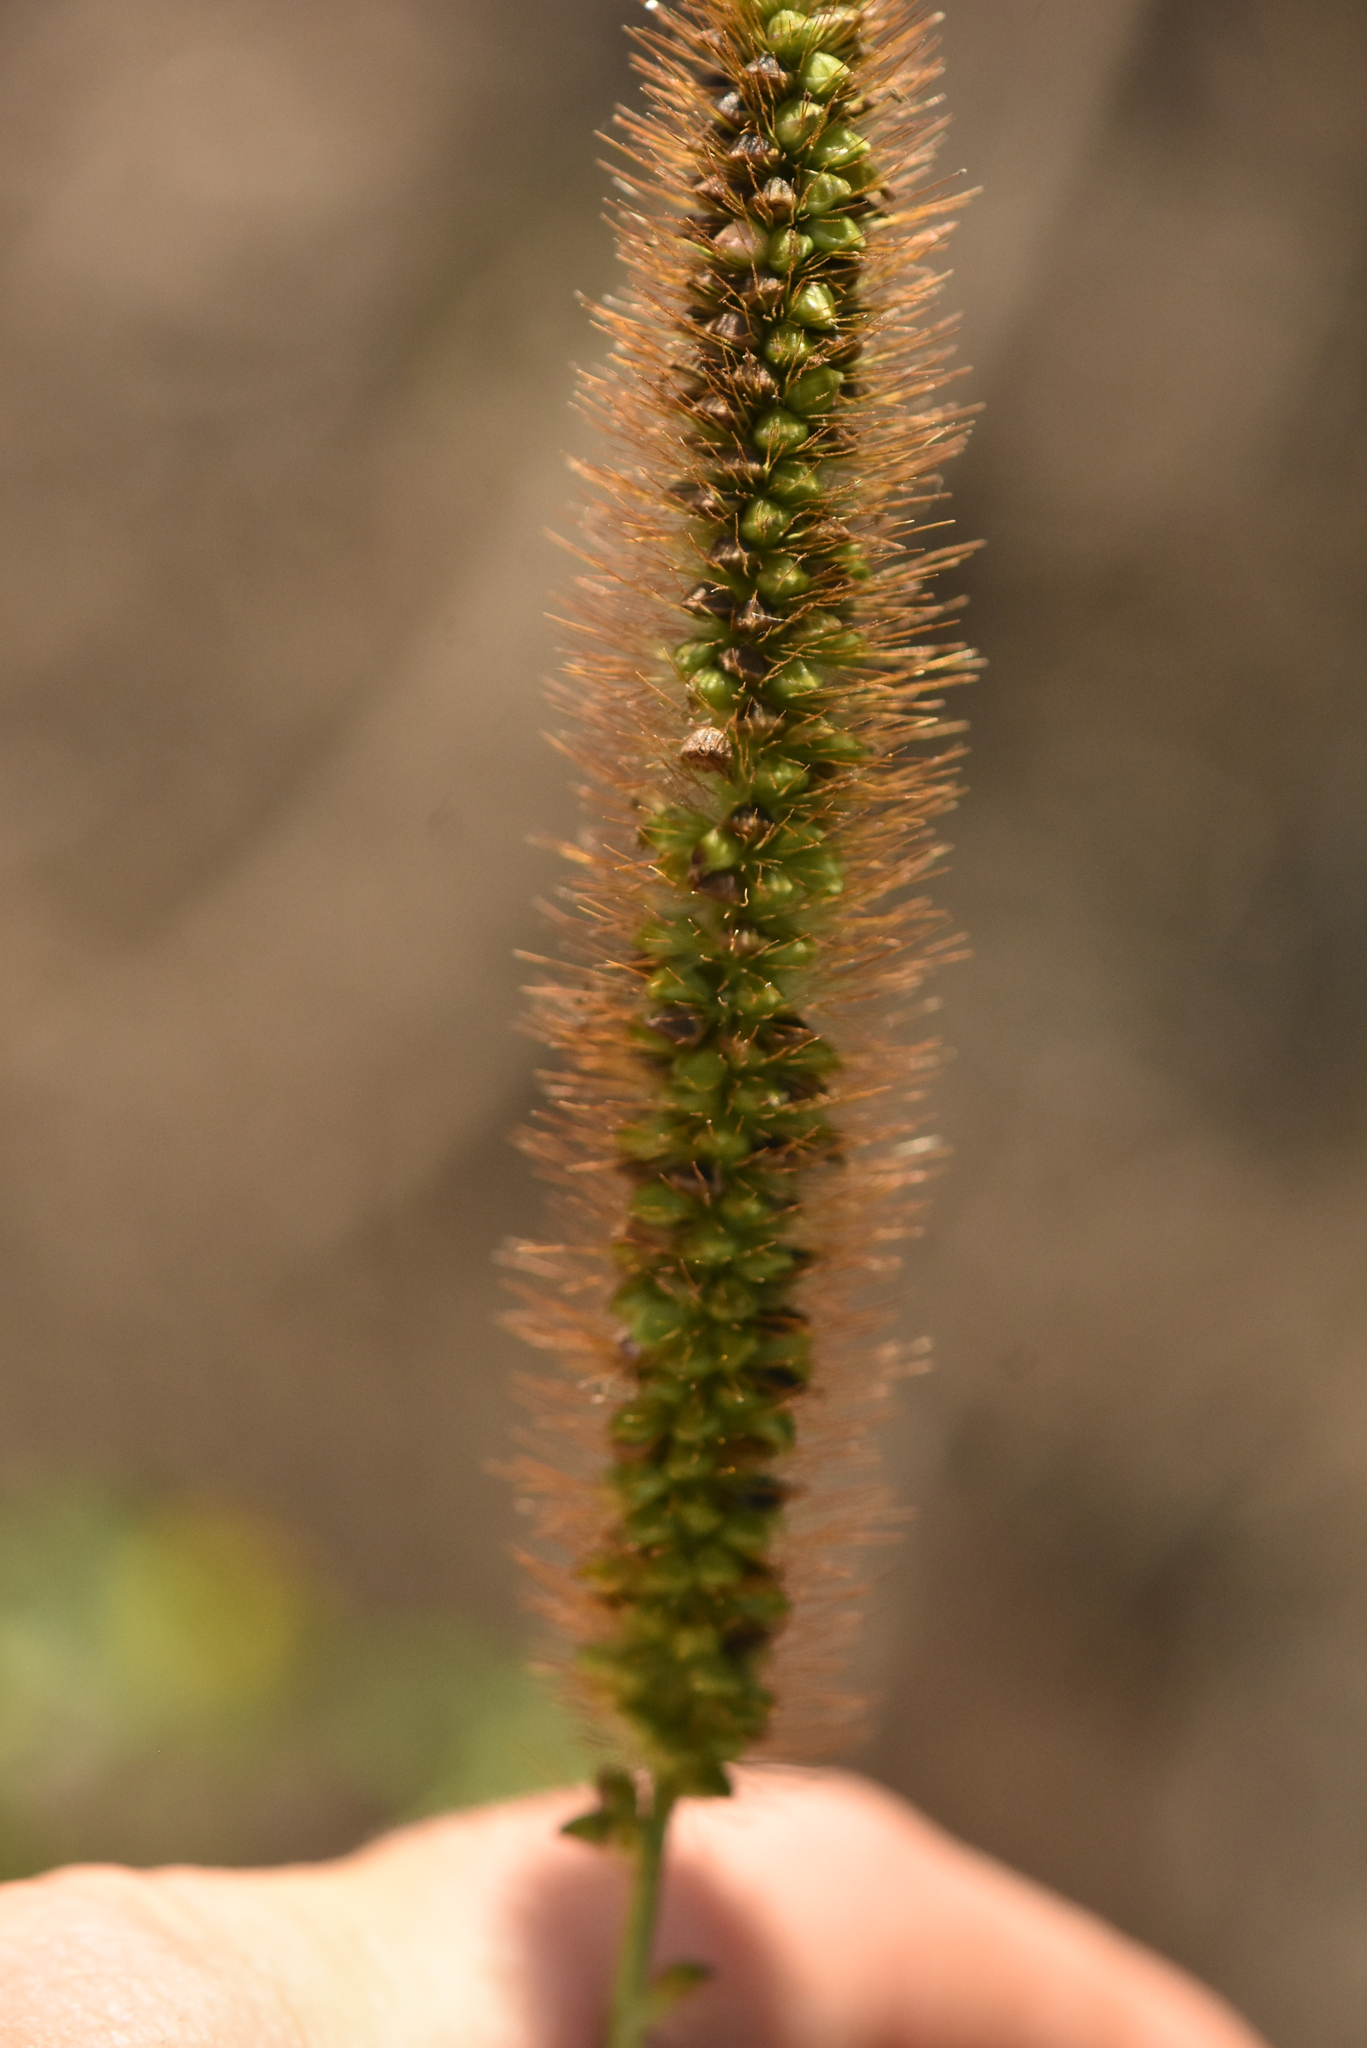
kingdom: Plantae
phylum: Tracheophyta
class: Liliopsida
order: Poales
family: Poaceae
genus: Setaria
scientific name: Setaria pumila
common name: Yellow bristle-grass
